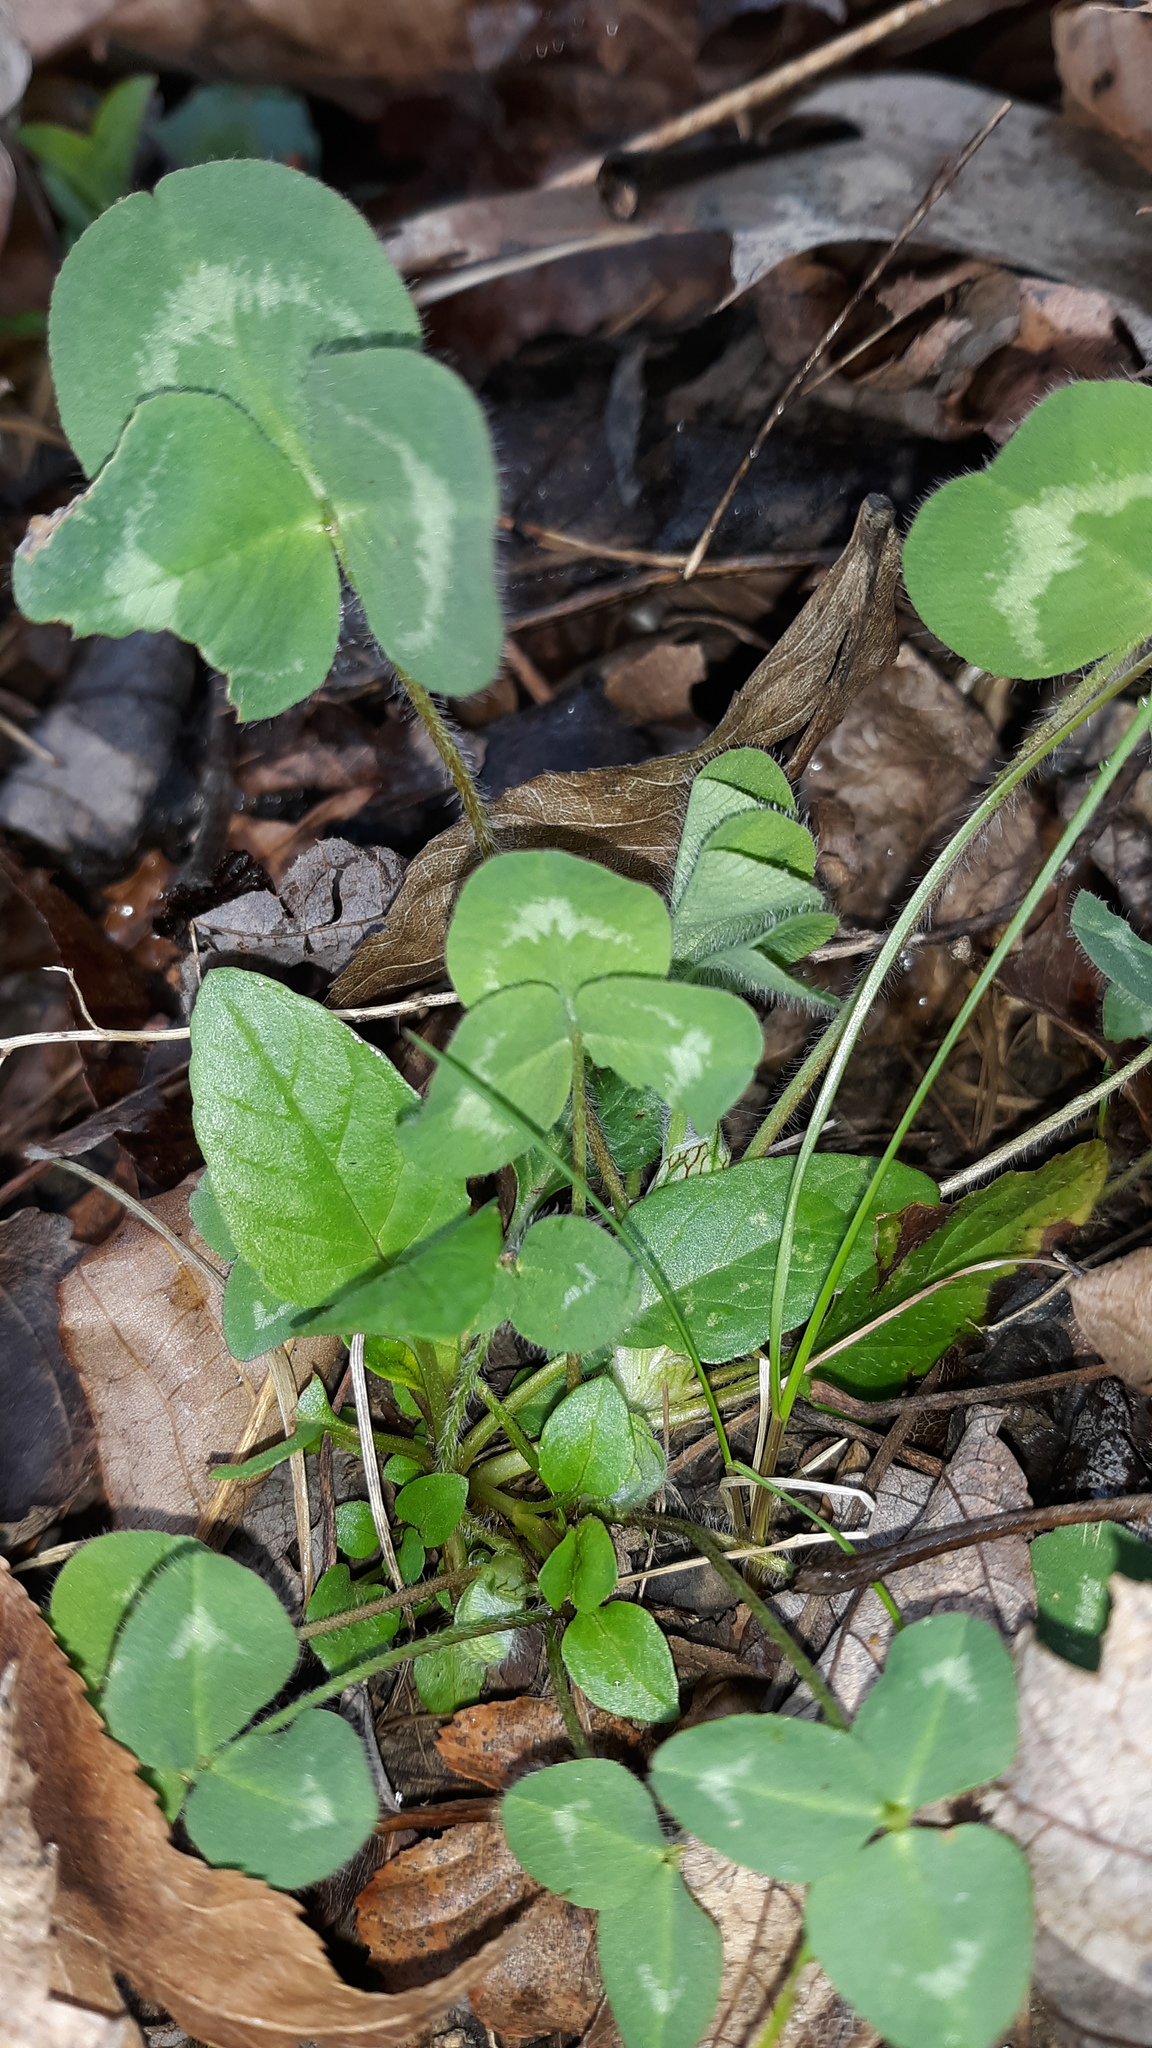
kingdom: Plantae
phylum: Tracheophyta
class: Magnoliopsida
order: Fabales
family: Fabaceae
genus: Trifolium
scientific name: Trifolium pratense
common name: Red clover
